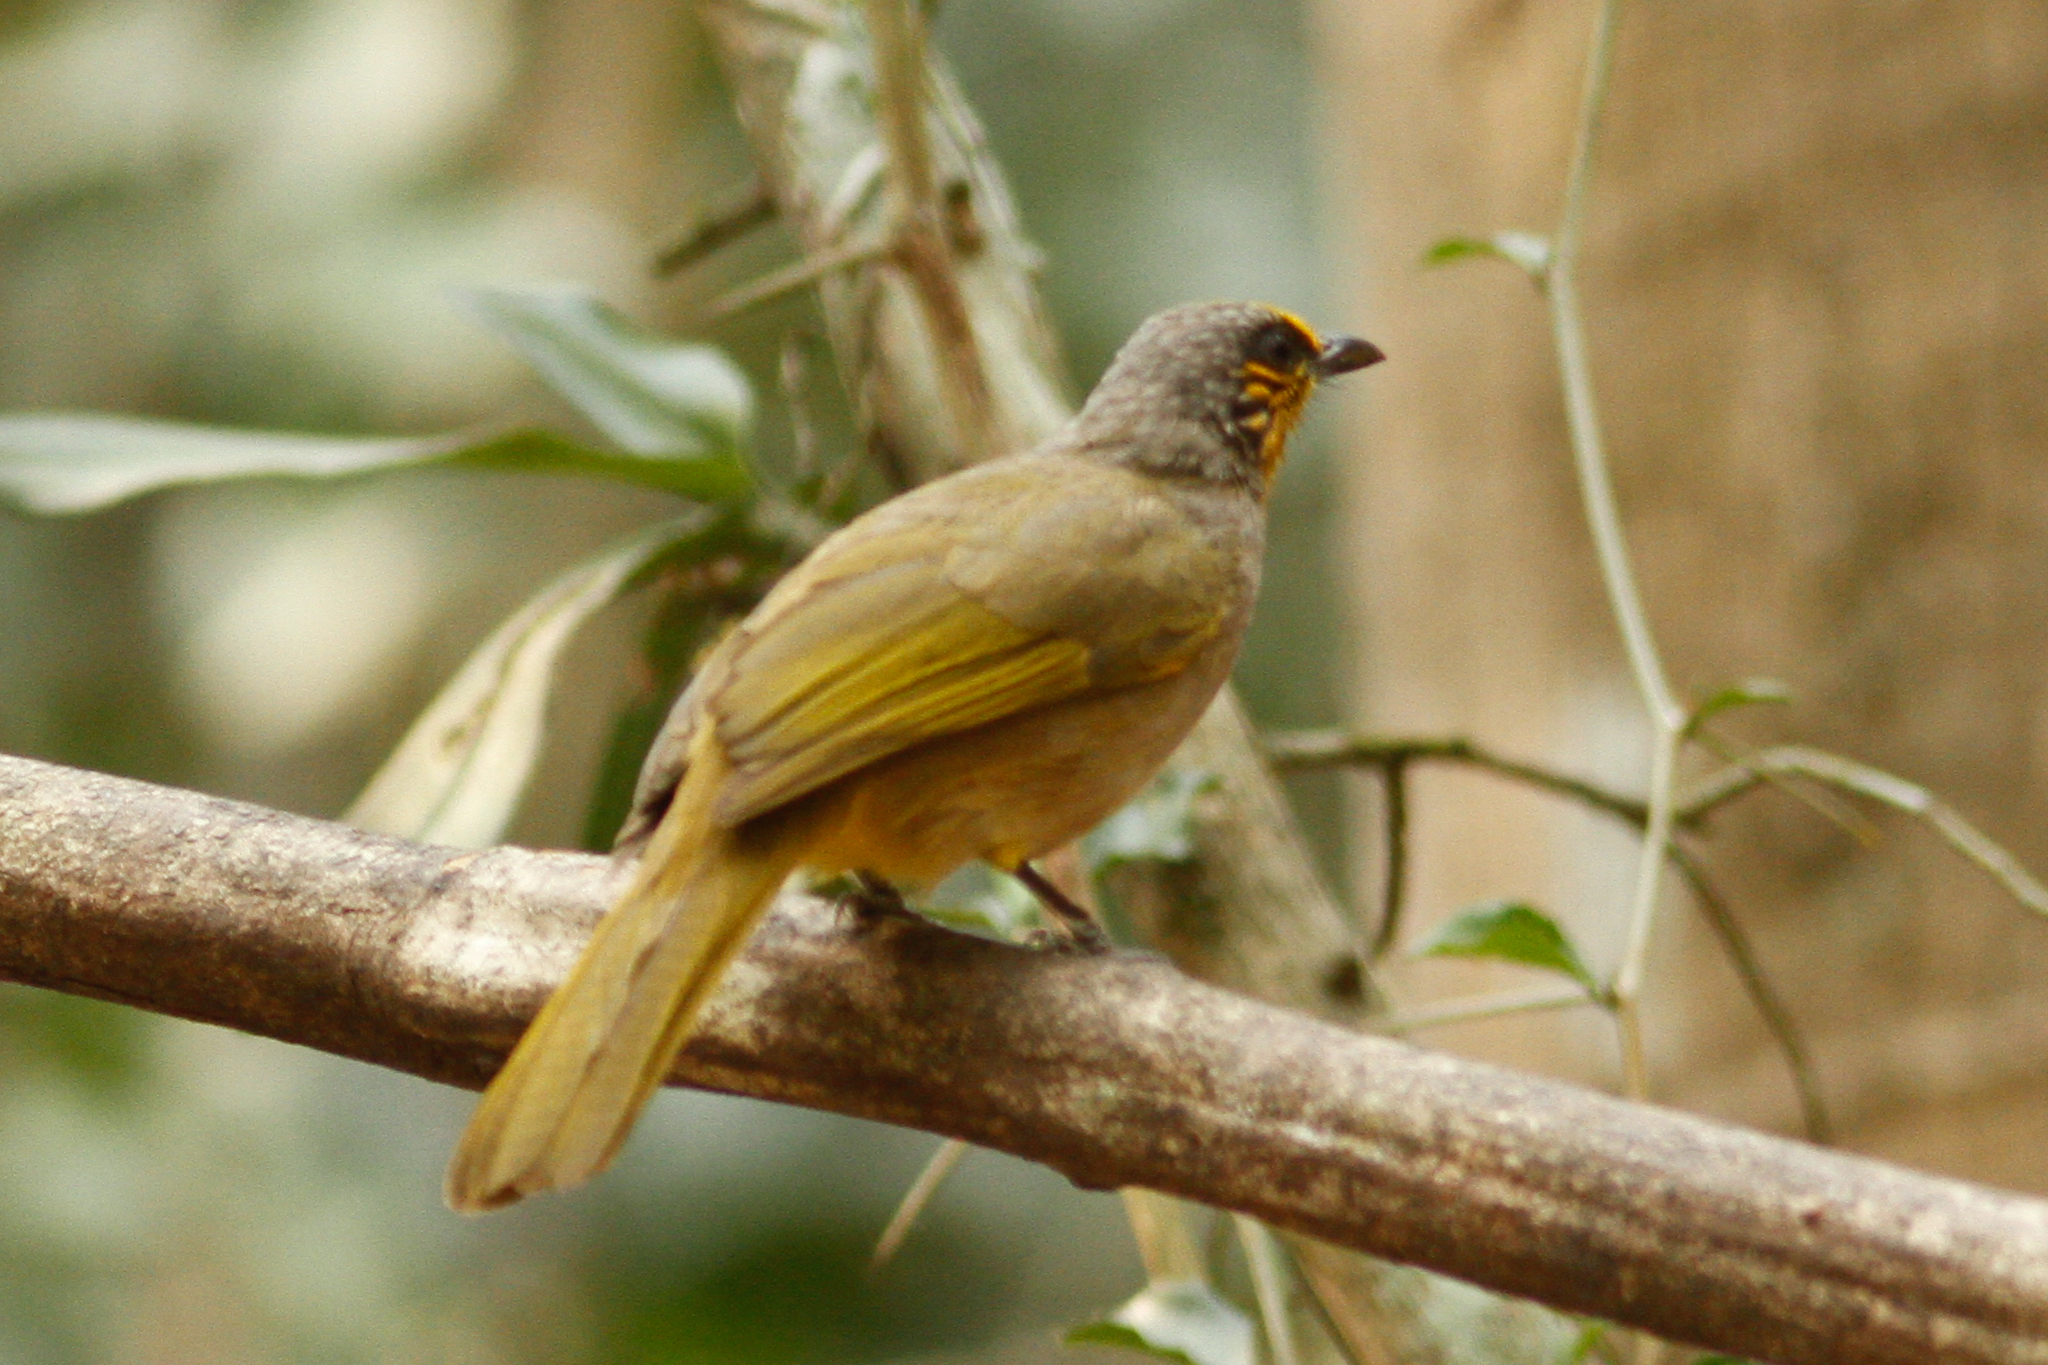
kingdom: Animalia
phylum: Chordata
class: Aves
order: Passeriformes
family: Pycnonotidae
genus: Pycnonotus
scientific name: Pycnonotus finlaysoni
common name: Stripe-throated bulbul
